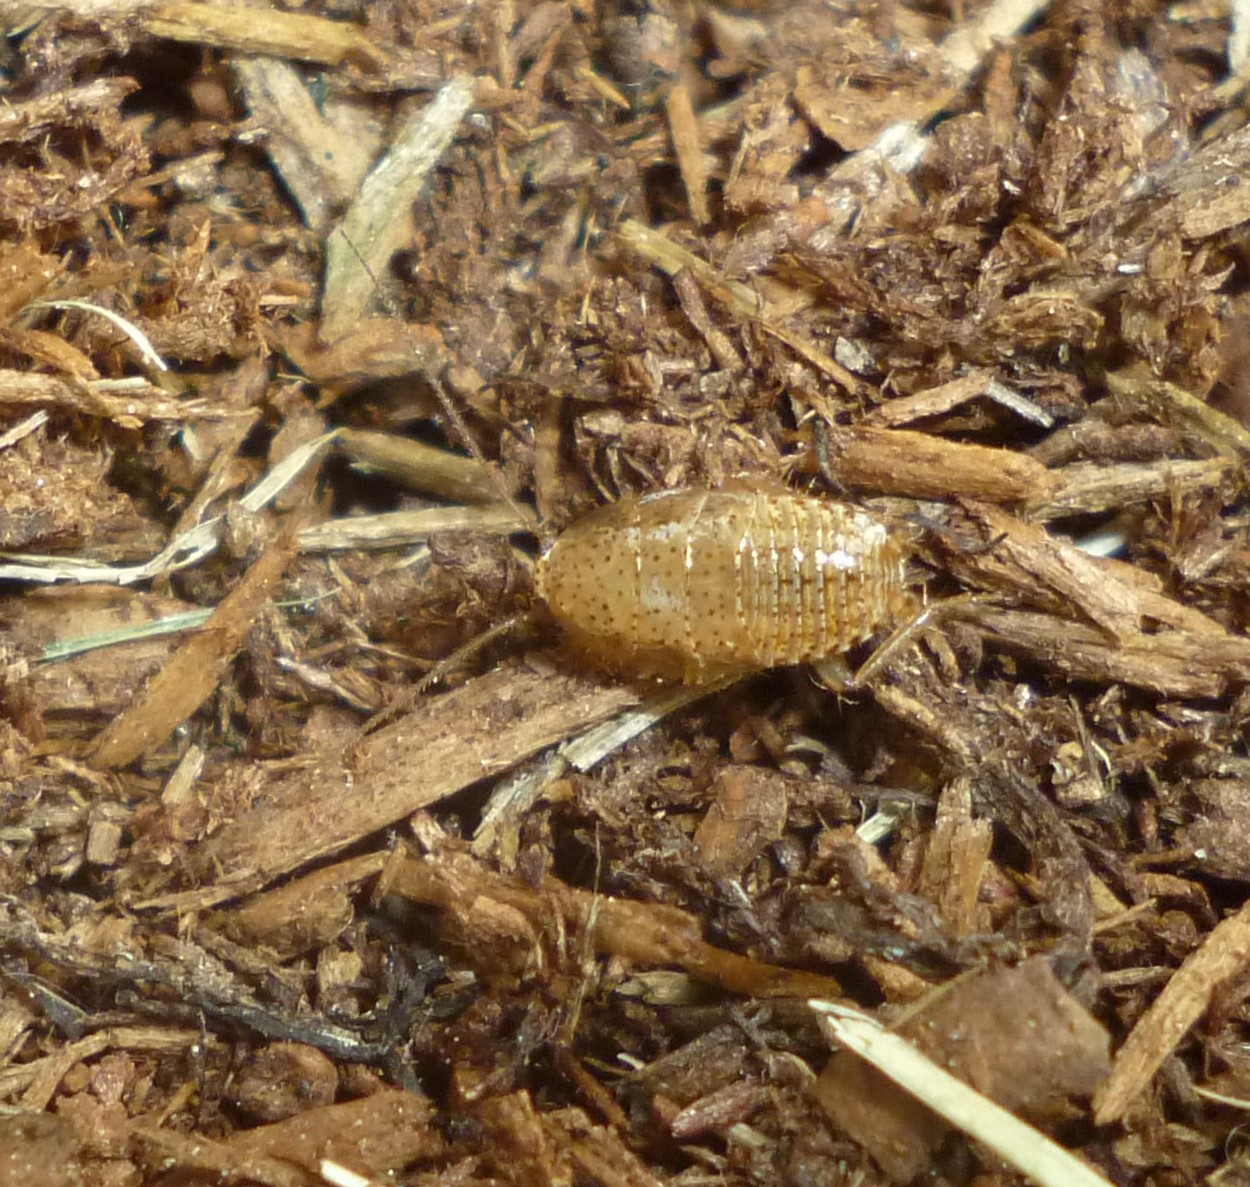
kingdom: Animalia
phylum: Arthropoda
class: Insecta
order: Blattodea
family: Ectobiidae
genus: Ectobius
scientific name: Ectobius pallidus
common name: Tawny cockroach
